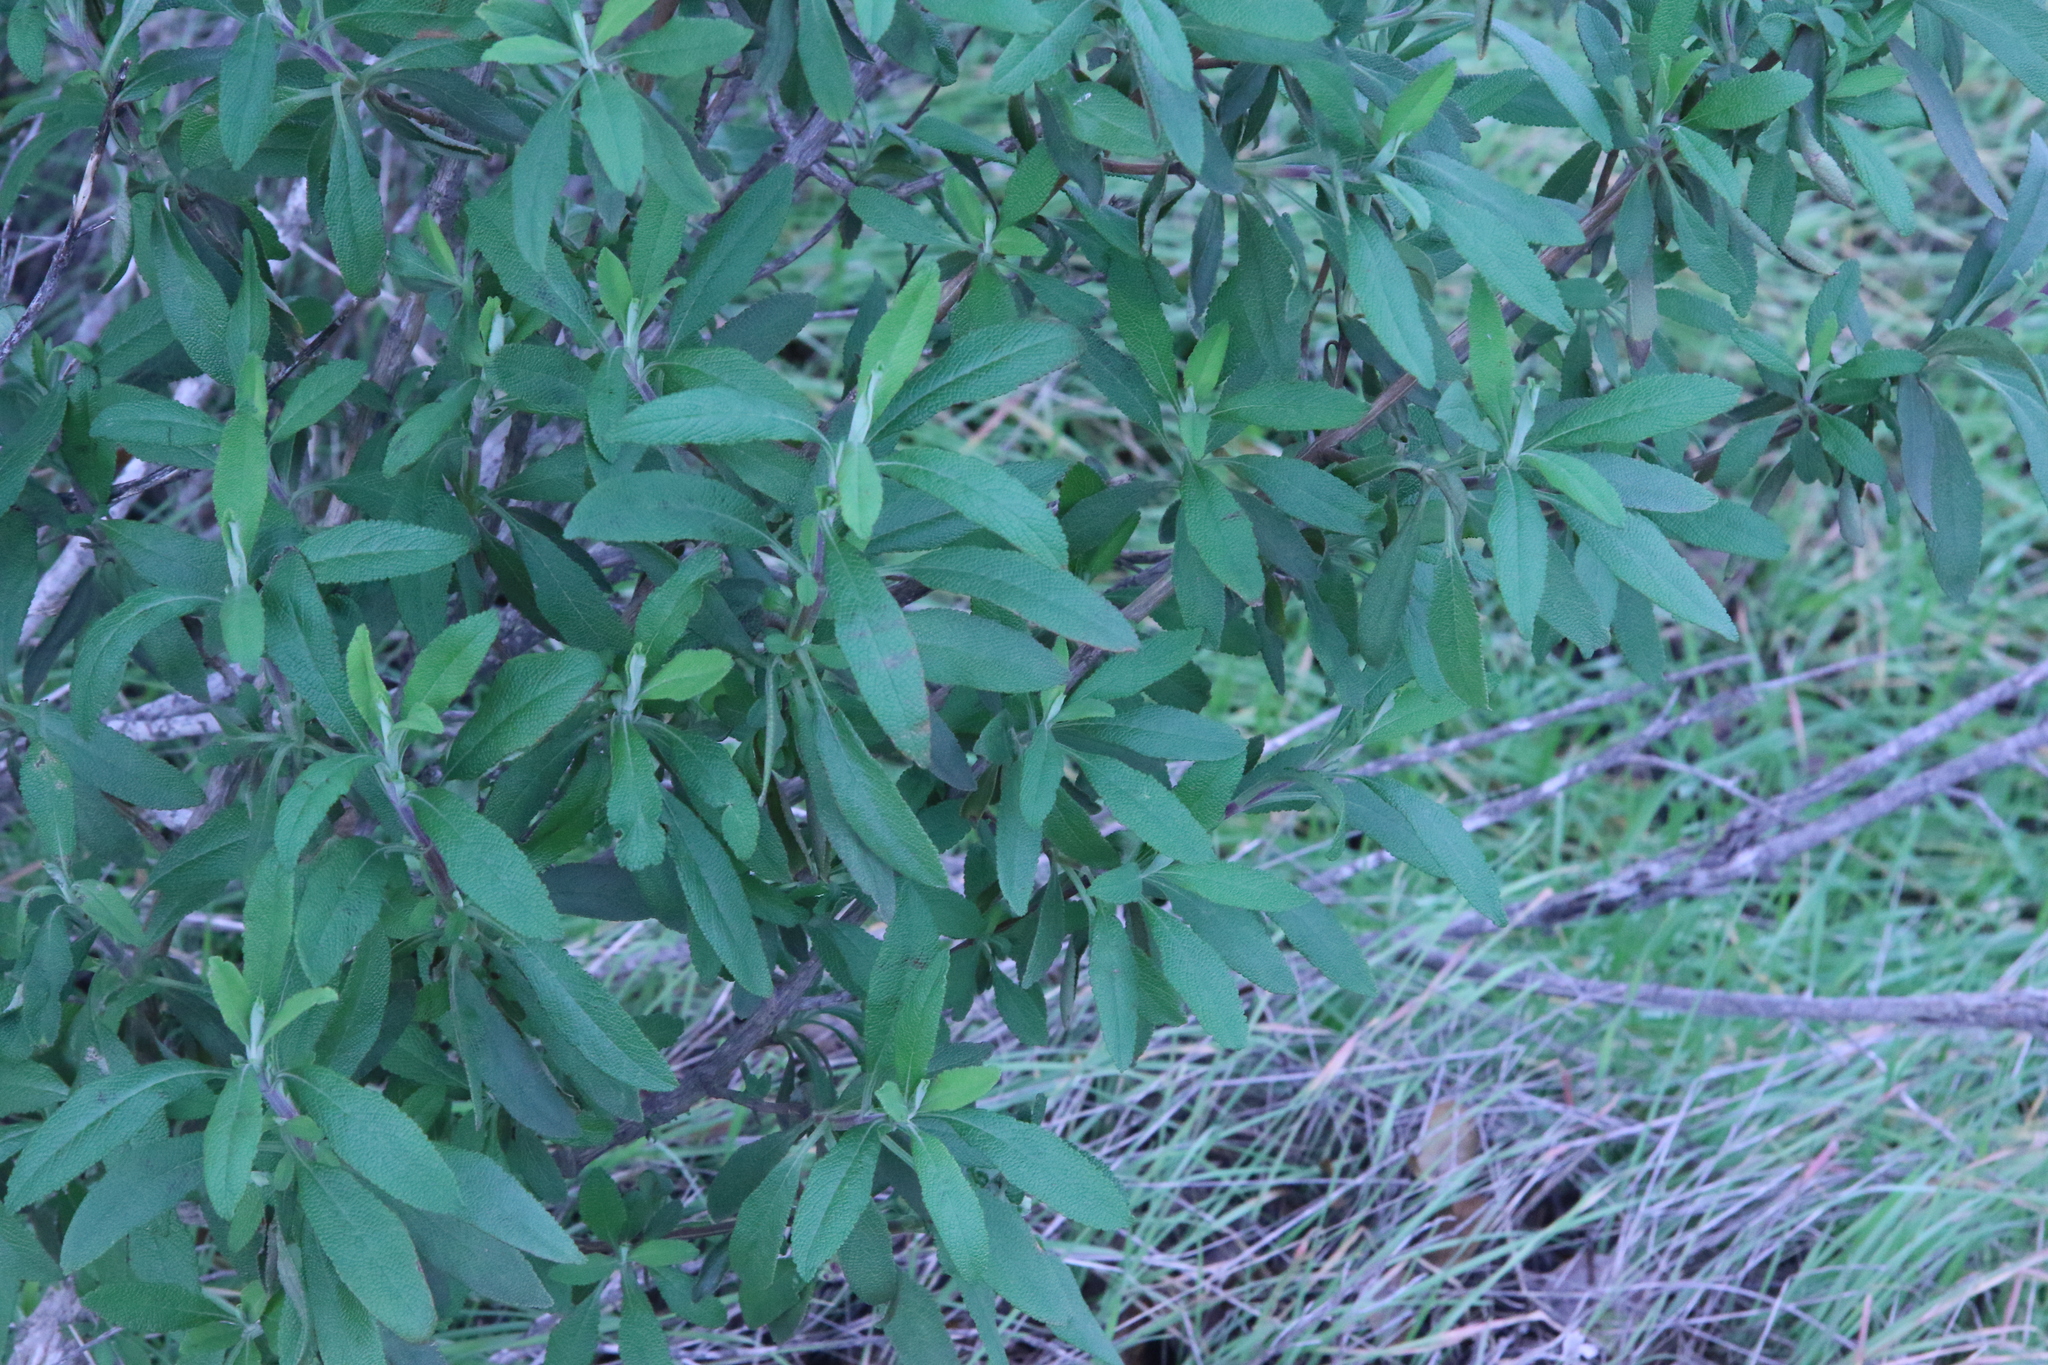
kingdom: Plantae
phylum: Tracheophyta
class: Magnoliopsida
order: Lamiales
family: Lamiaceae
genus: Salvia
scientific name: Salvia mellifera
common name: Black sage
